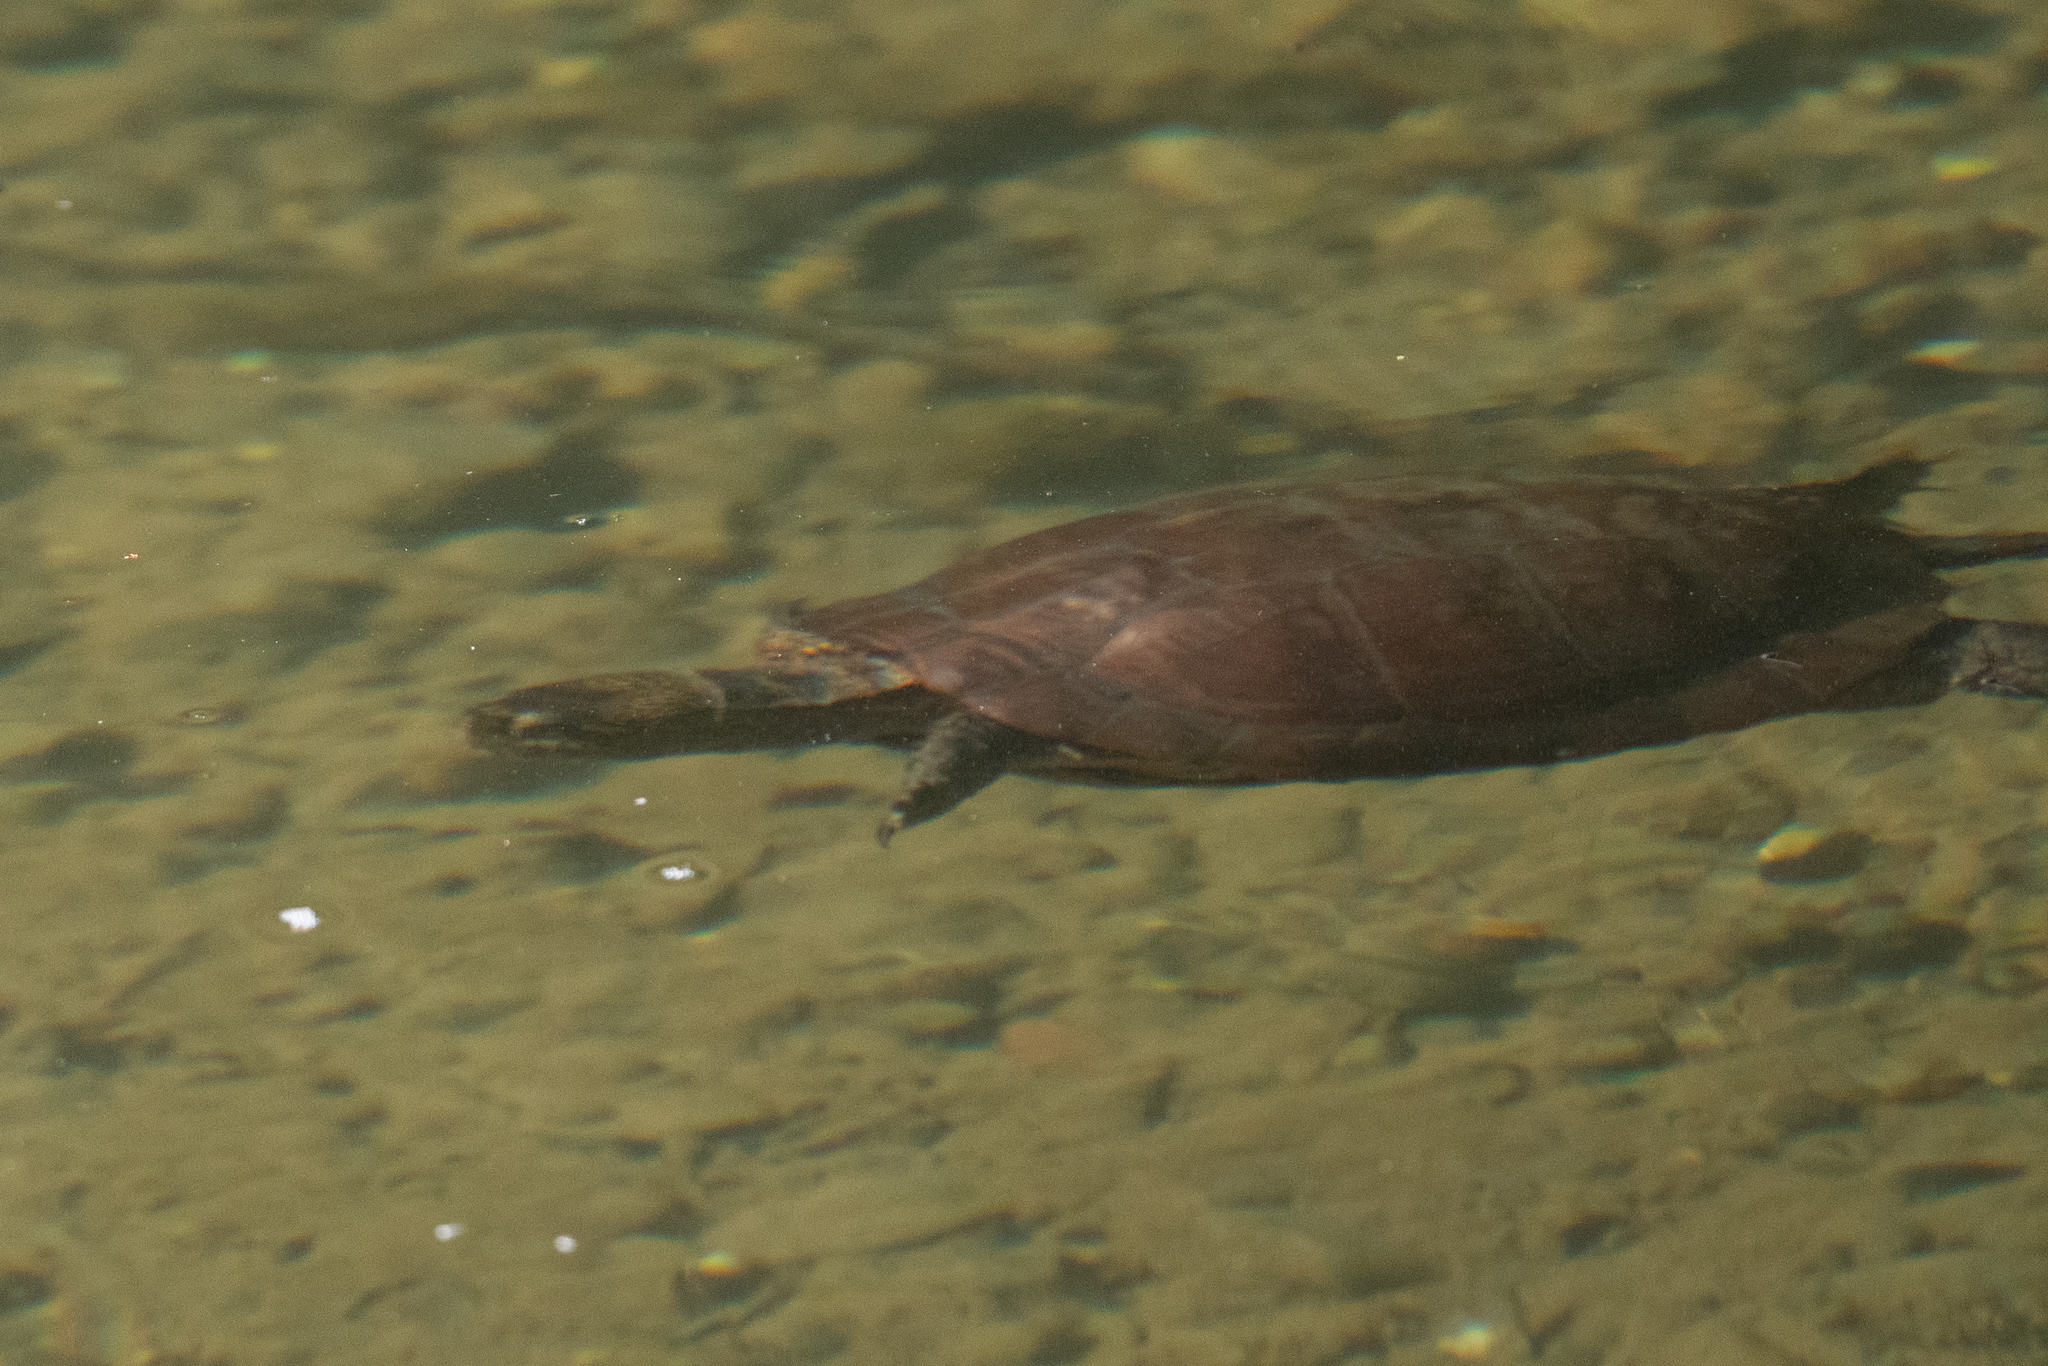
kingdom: Animalia
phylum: Chordata
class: Testudines
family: Emydidae
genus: Actinemys
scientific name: Actinemys marmorata
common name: Western pond turtle
